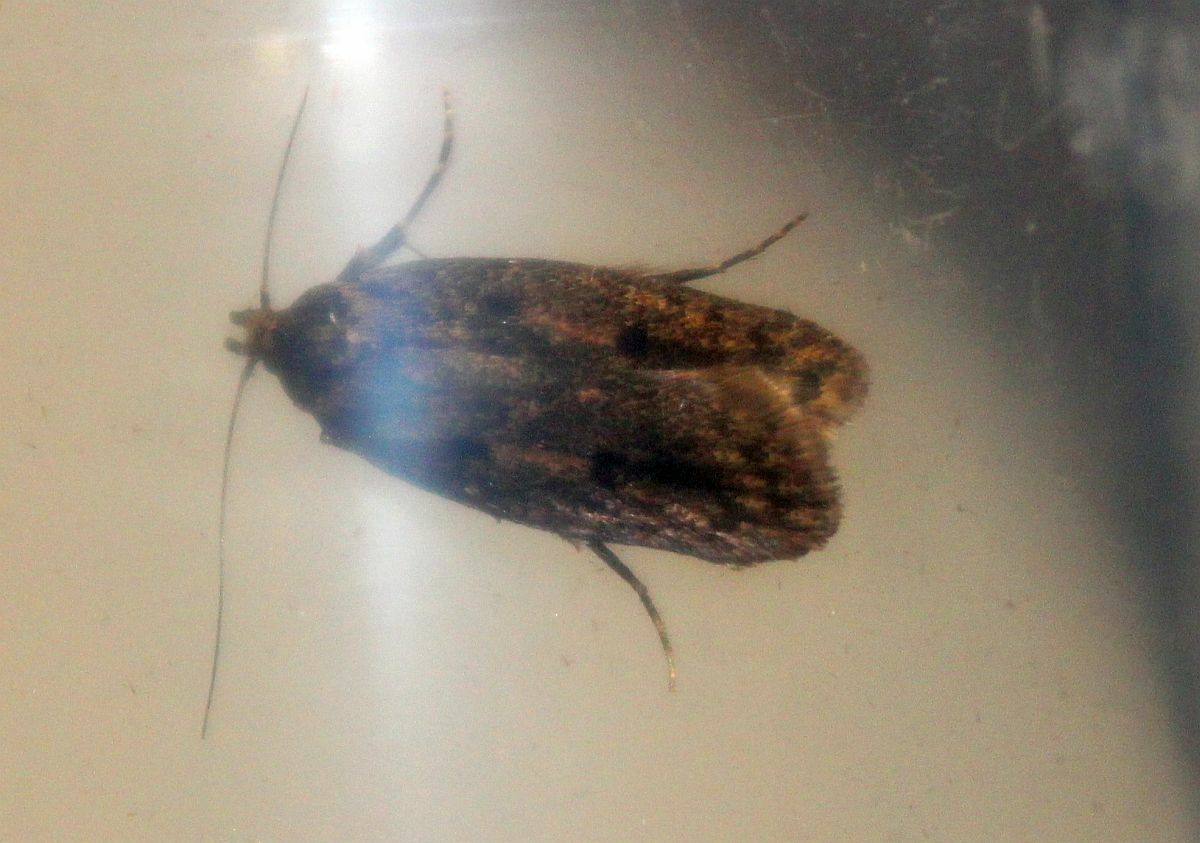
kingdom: Animalia
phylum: Arthropoda
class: Insecta
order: Lepidoptera
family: Oecophoridae
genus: Hofmannophila
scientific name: Hofmannophila pseudospretella
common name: Brown house moth
